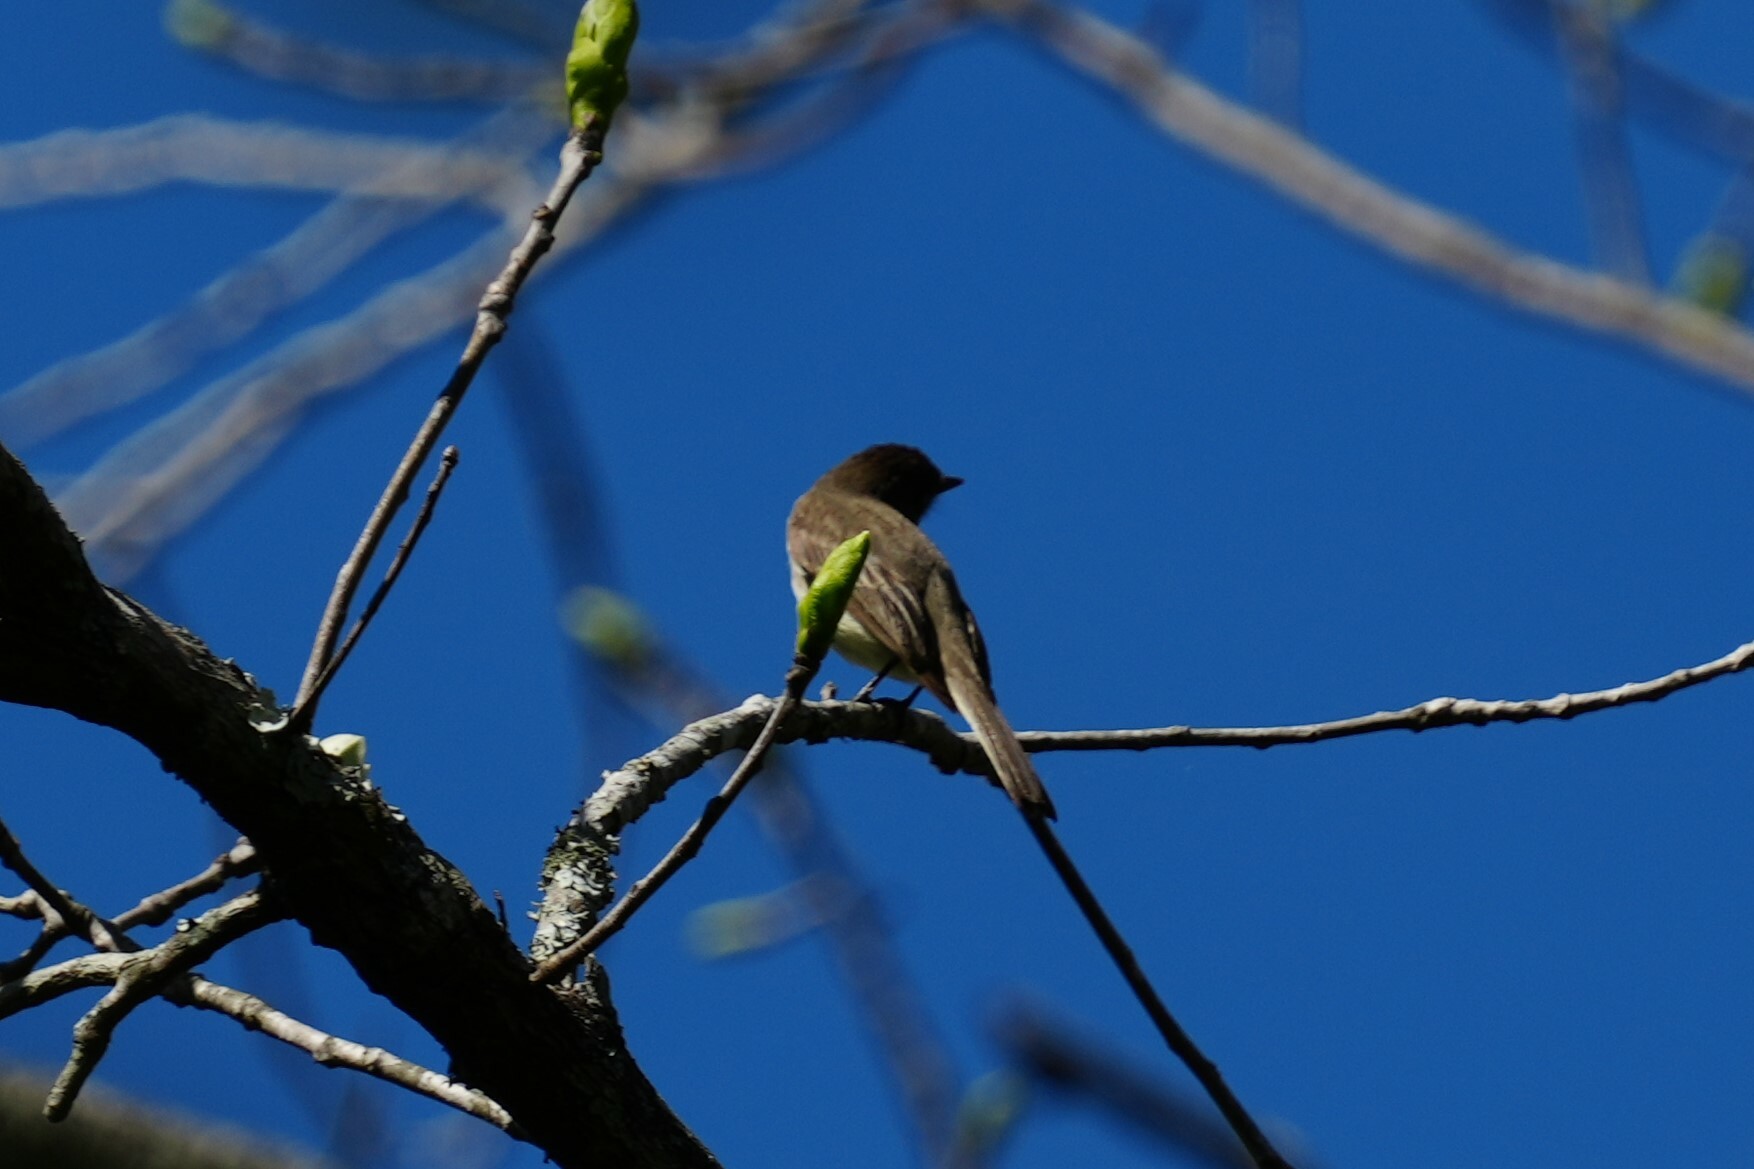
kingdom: Animalia
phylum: Chordata
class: Aves
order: Passeriformes
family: Tyrannidae
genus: Sayornis
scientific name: Sayornis phoebe
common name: Eastern phoebe
